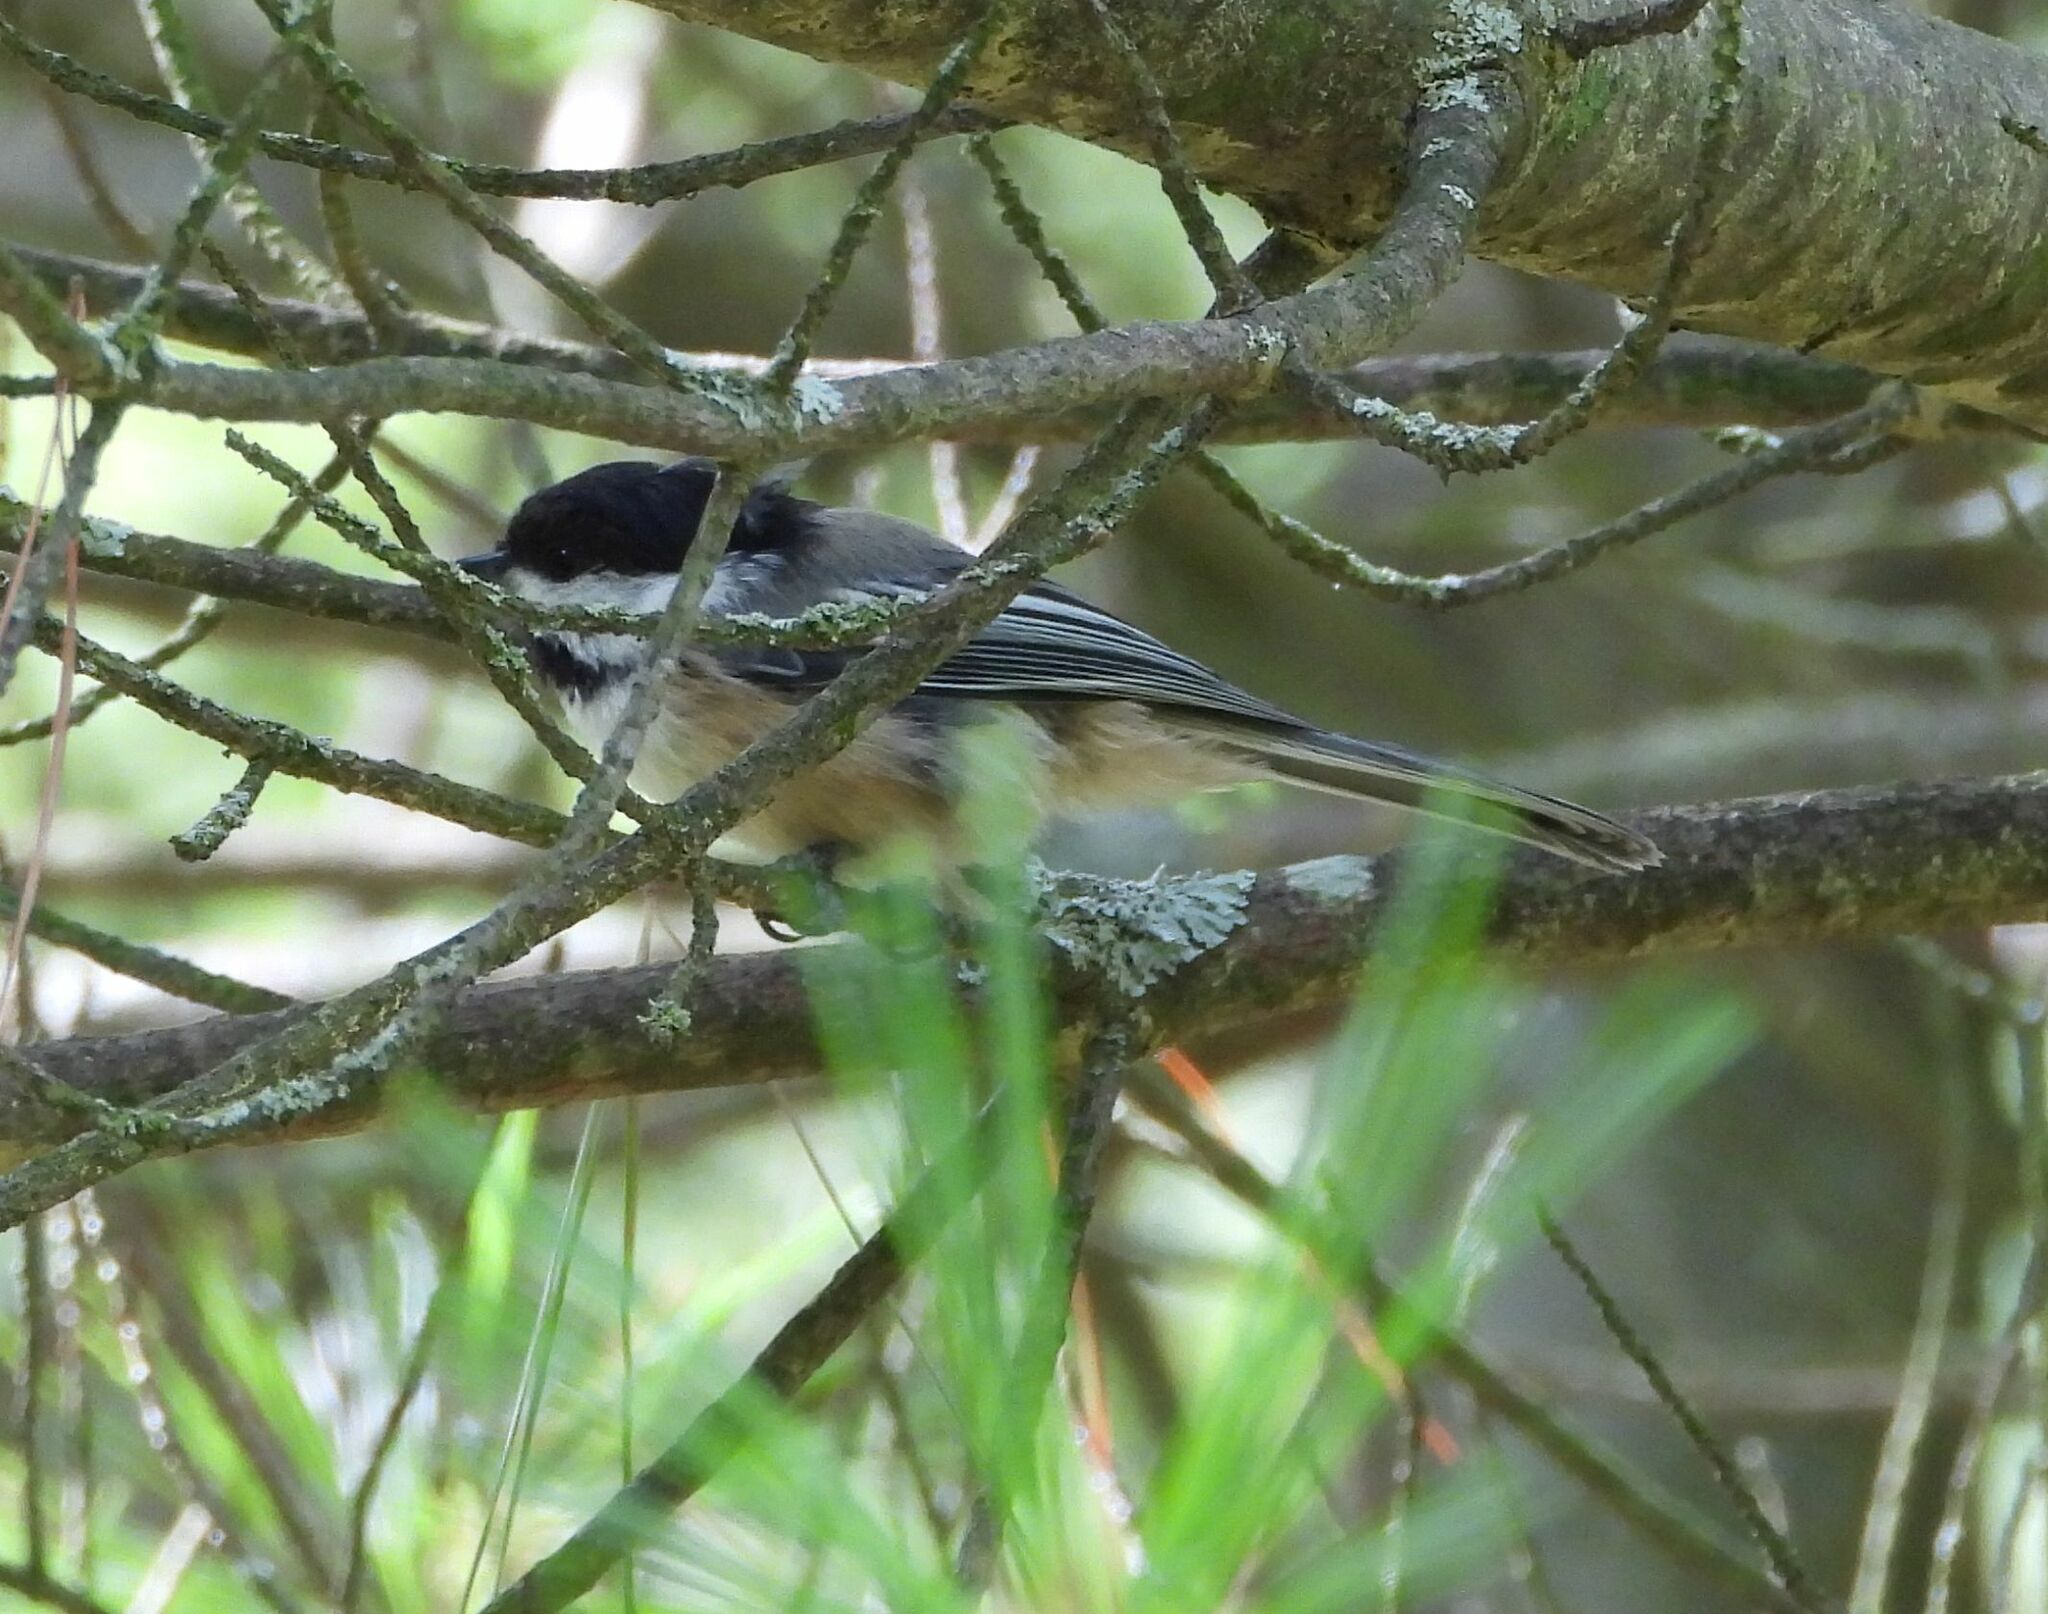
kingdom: Animalia
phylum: Chordata
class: Aves
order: Passeriformes
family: Paridae
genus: Poecile
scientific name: Poecile atricapillus
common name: Black-capped chickadee
